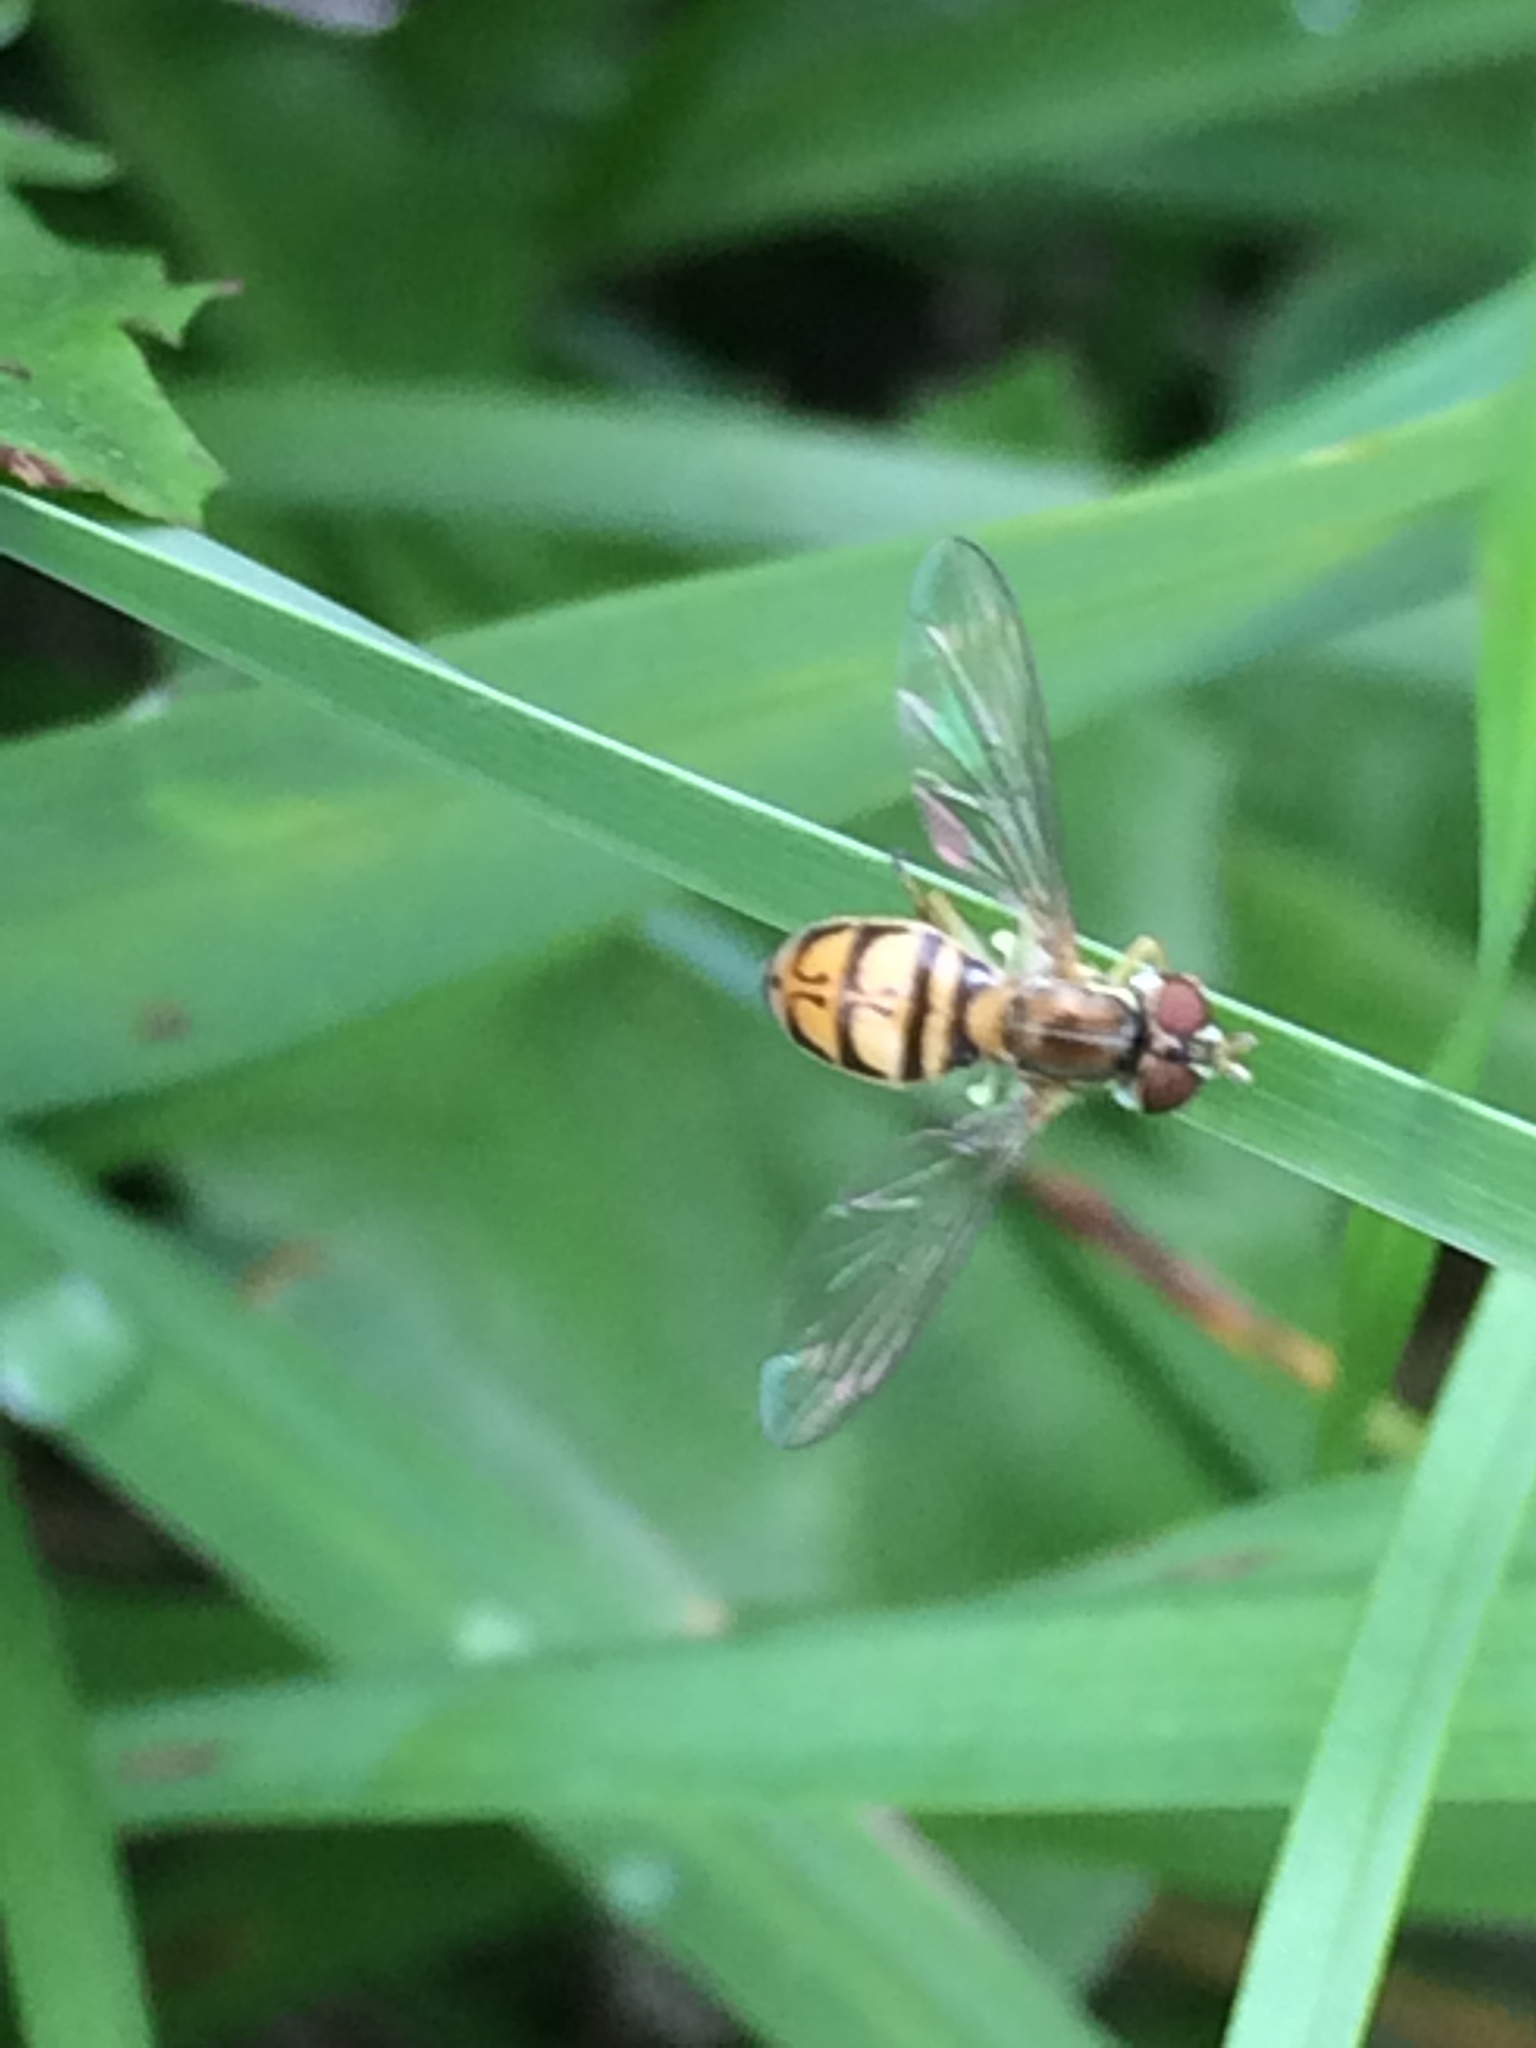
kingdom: Animalia
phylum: Arthropoda
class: Insecta
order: Diptera
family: Syrphidae
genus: Toxomerus
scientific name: Toxomerus marginatus
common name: Syrphid fly
